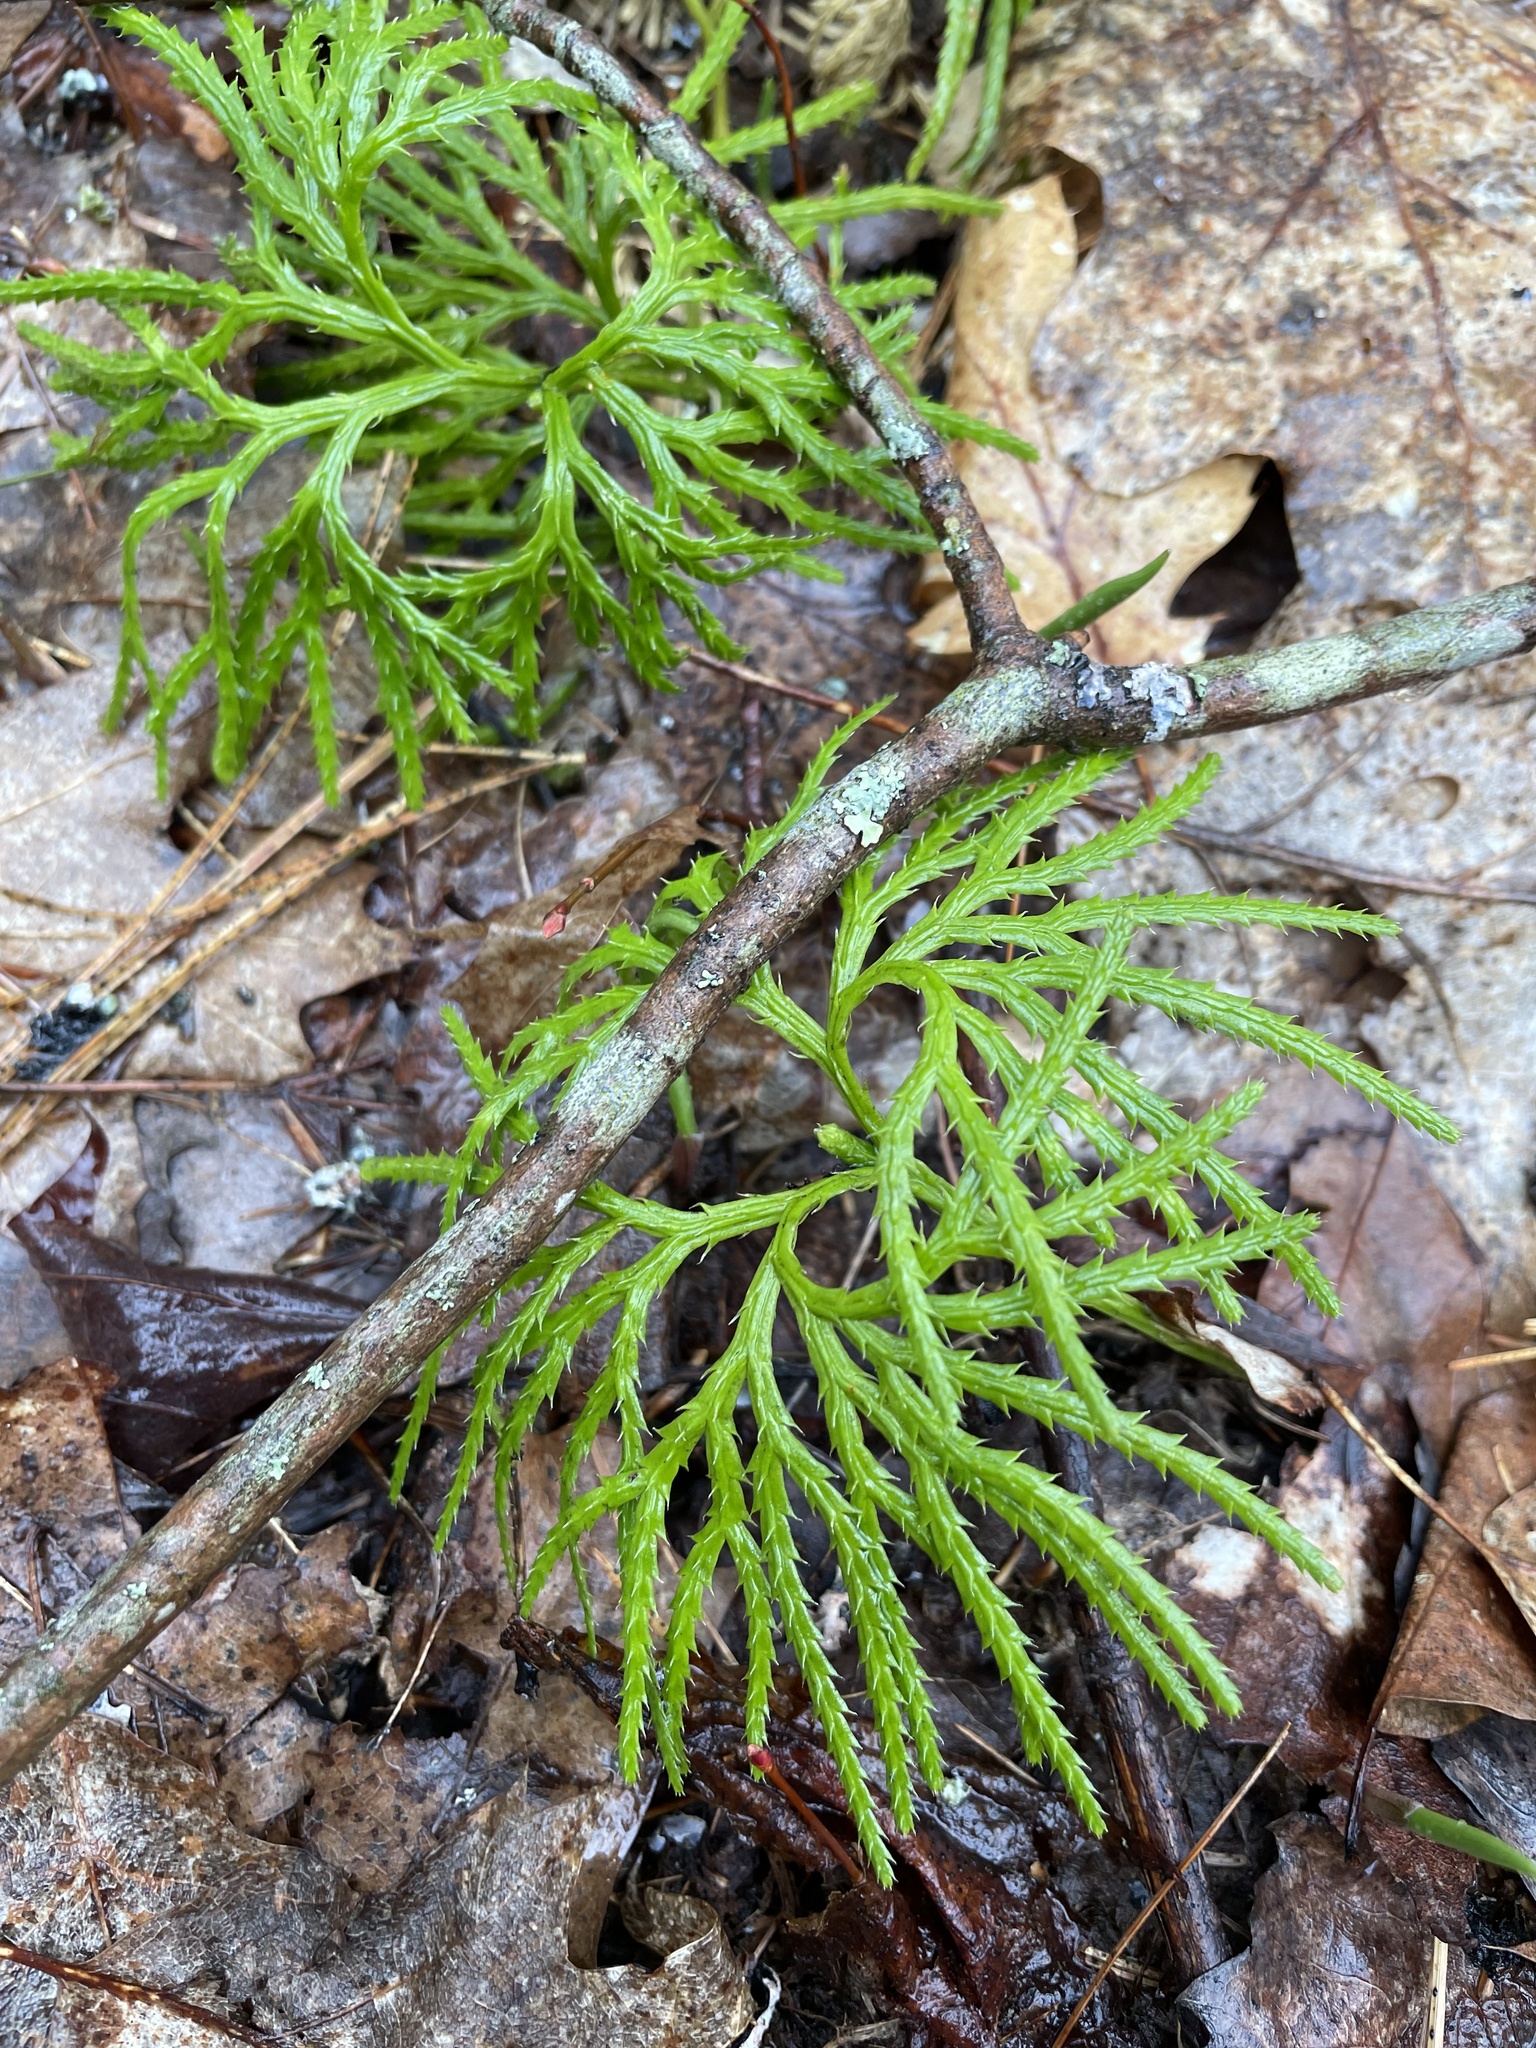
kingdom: Plantae
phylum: Tracheophyta
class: Lycopodiopsida
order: Lycopodiales
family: Lycopodiaceae
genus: Diphasiastrum
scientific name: Diphasiastrum digitatum
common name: Southern running-pine
